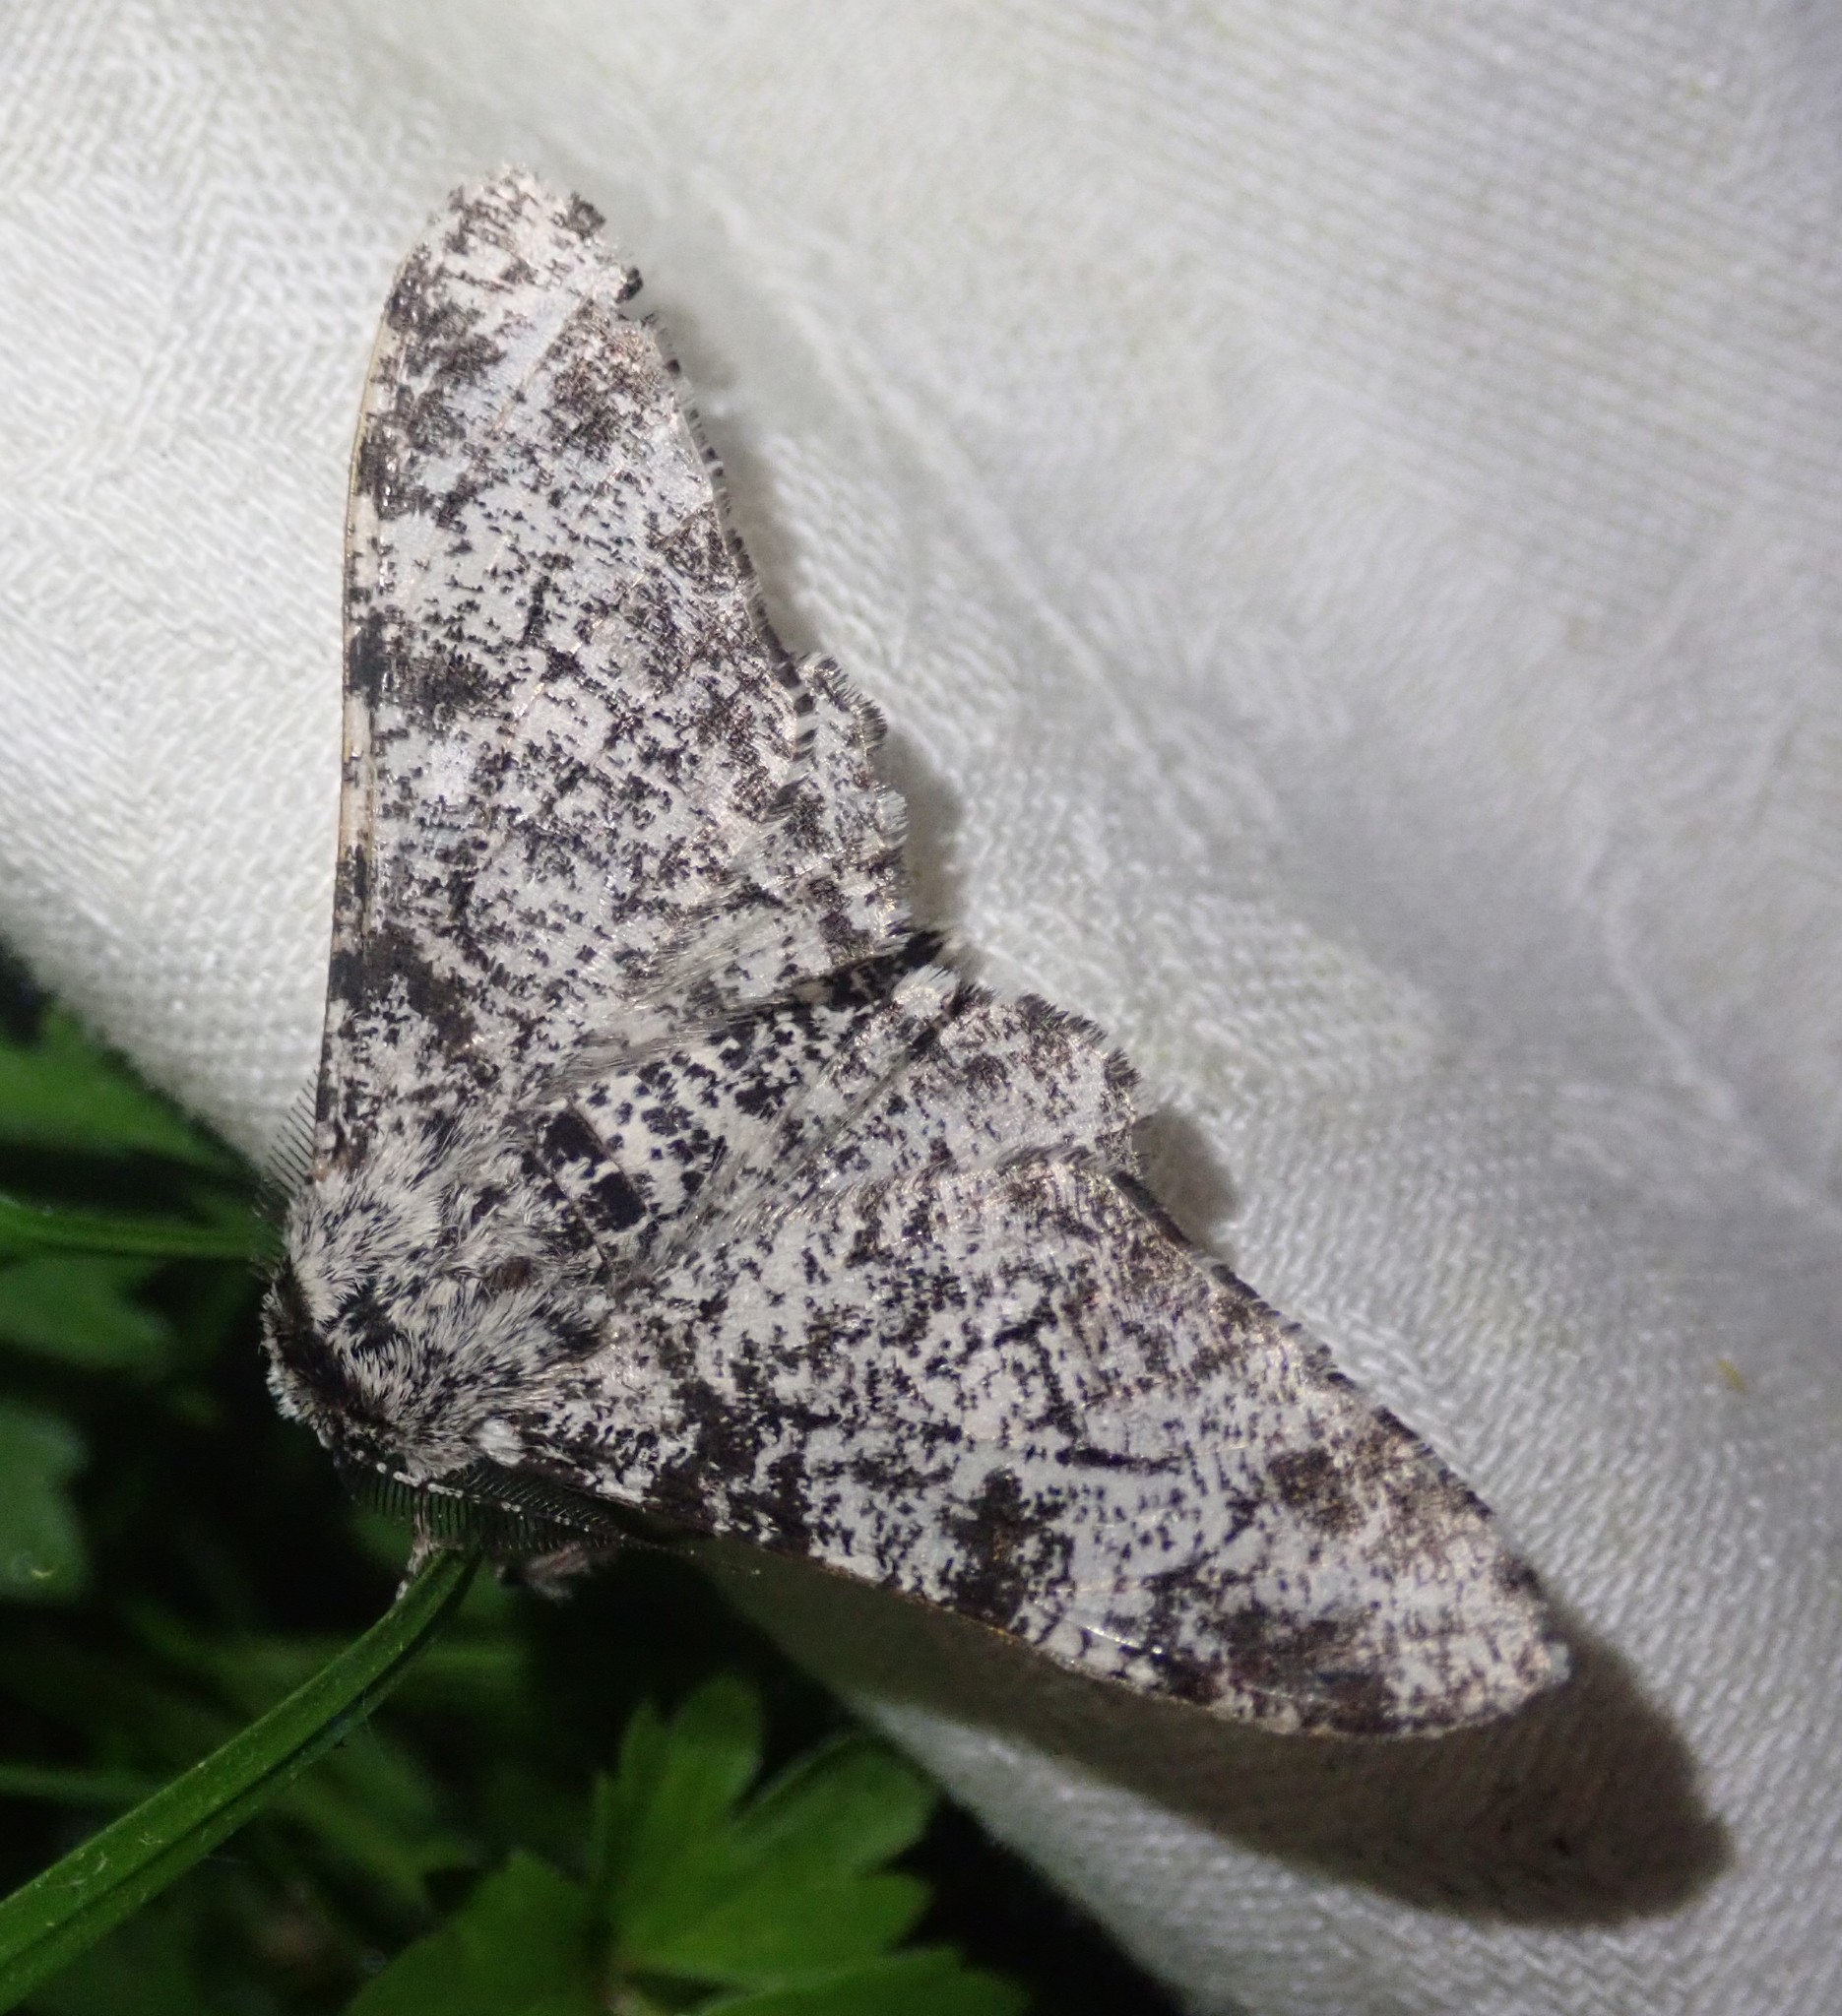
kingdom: Animalia
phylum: Arthropoda
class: Insecta
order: Lepidoptera
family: Geometridae
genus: Biston
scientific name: Biston betularia
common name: Peppered moth
